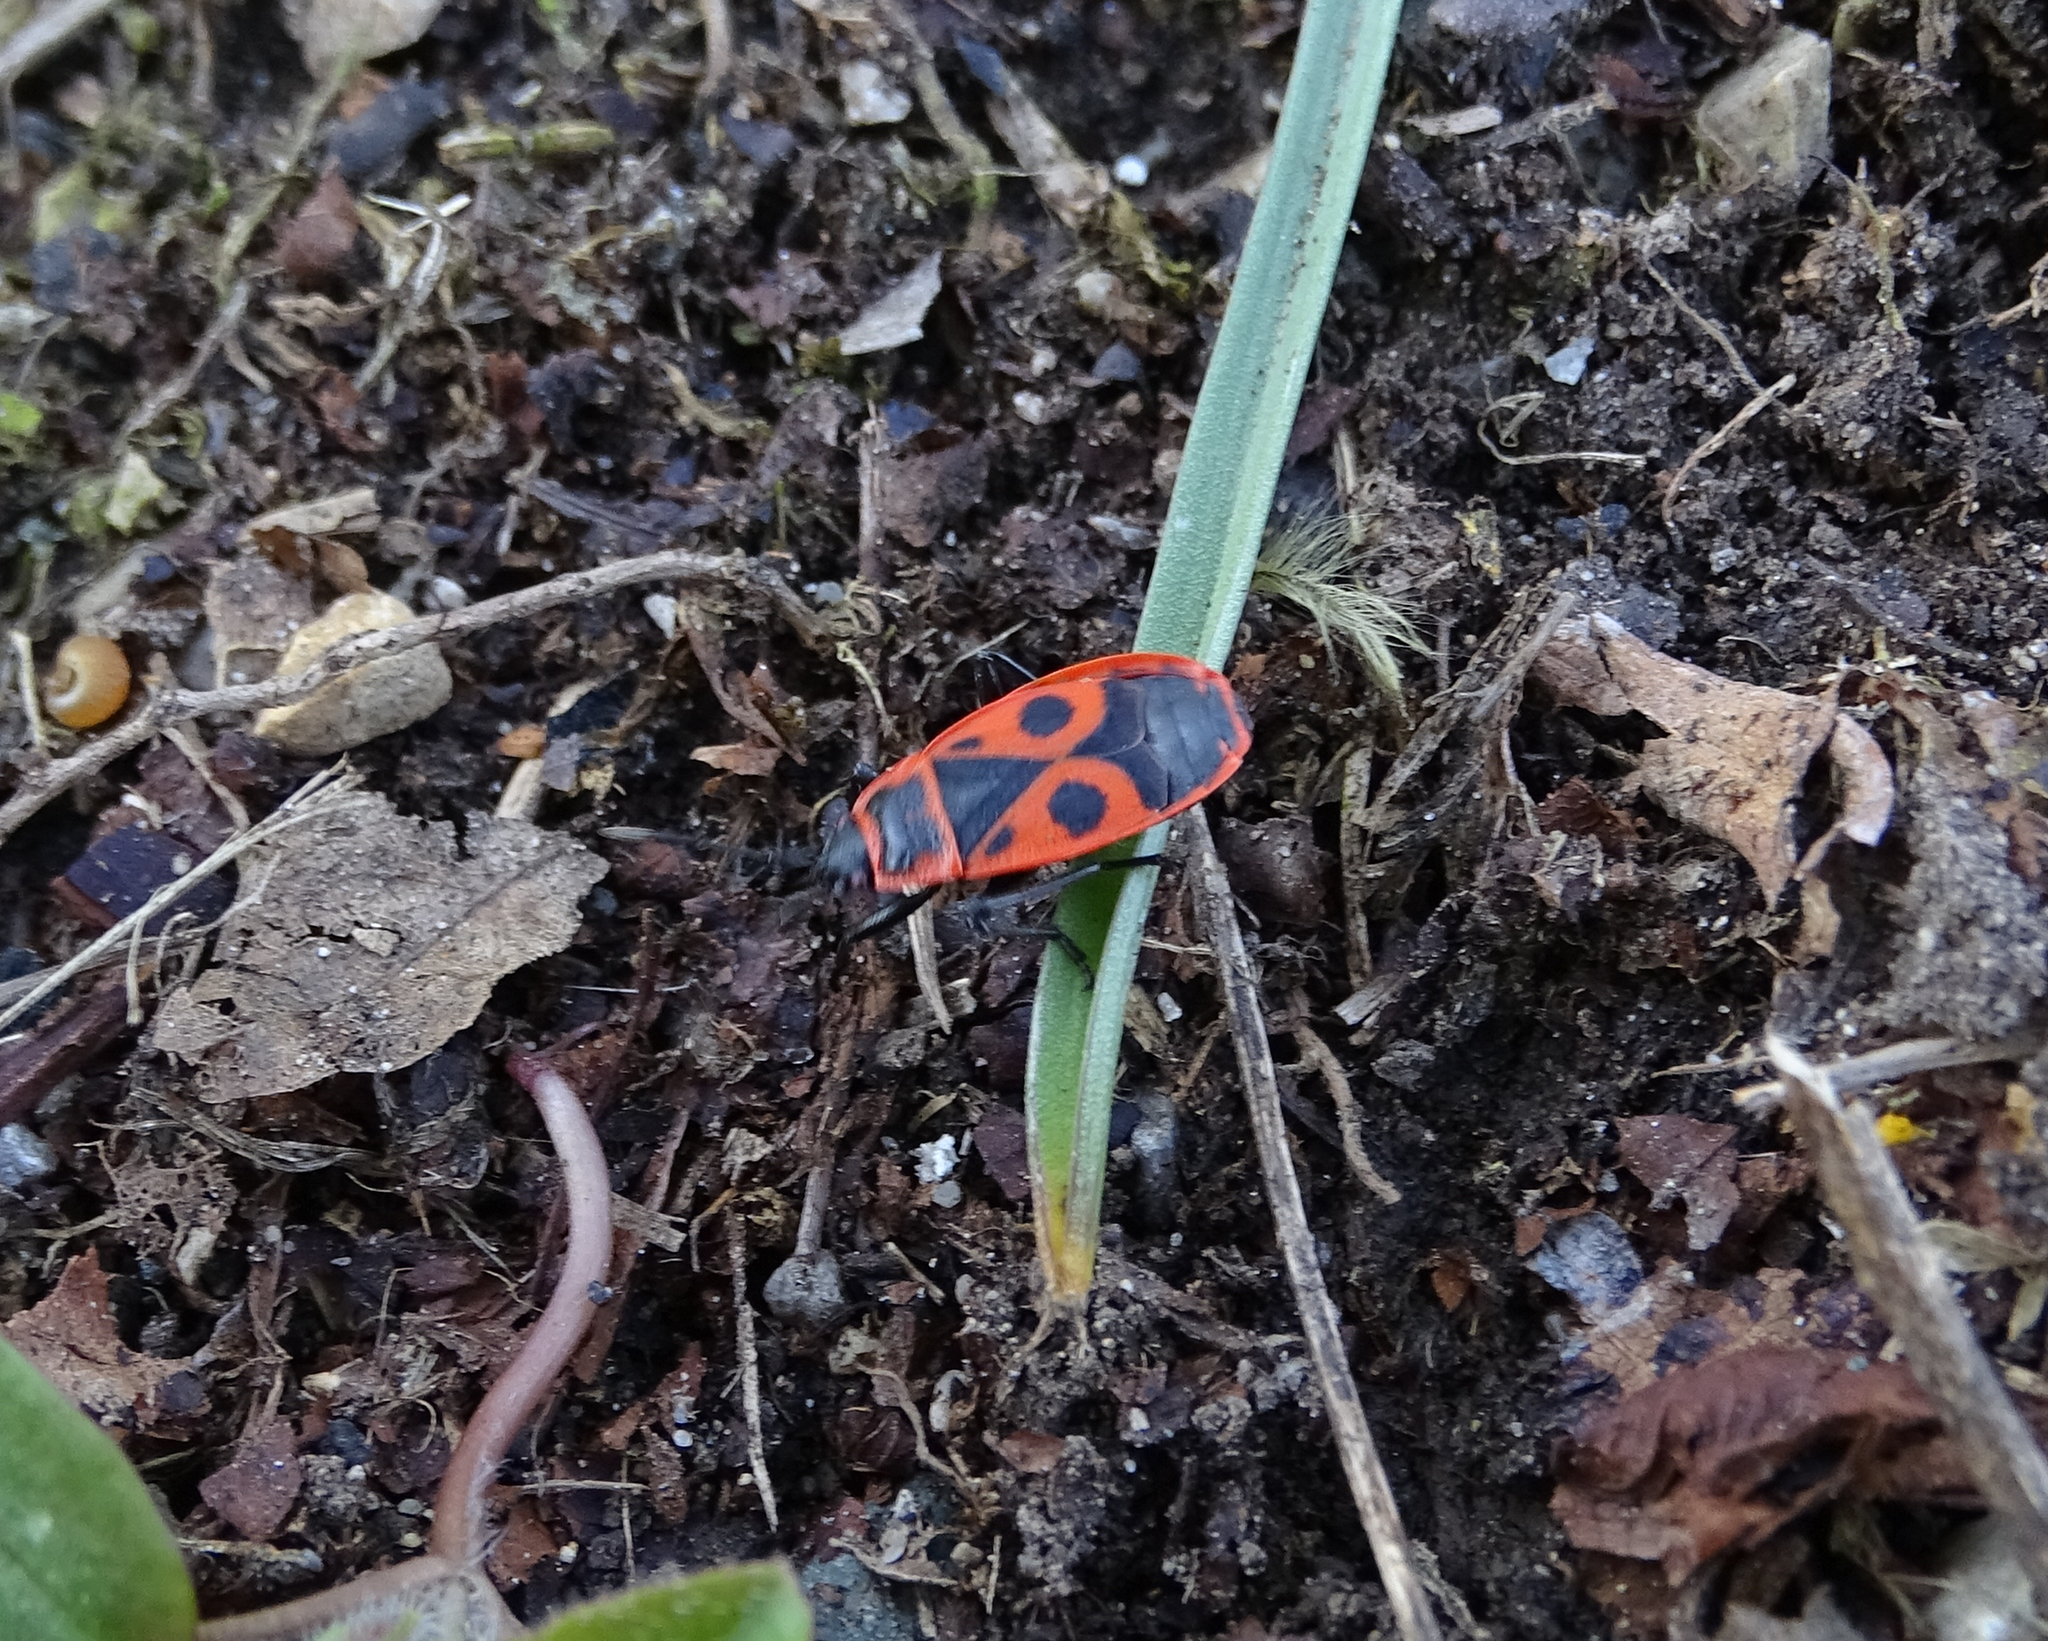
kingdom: Animalia
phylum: Arthropoda
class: Insecta
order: Hemiptera
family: Pyrrhocoridae
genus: Pyrrhocoris
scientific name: Pyrrhocoris apterus
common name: Firebug
